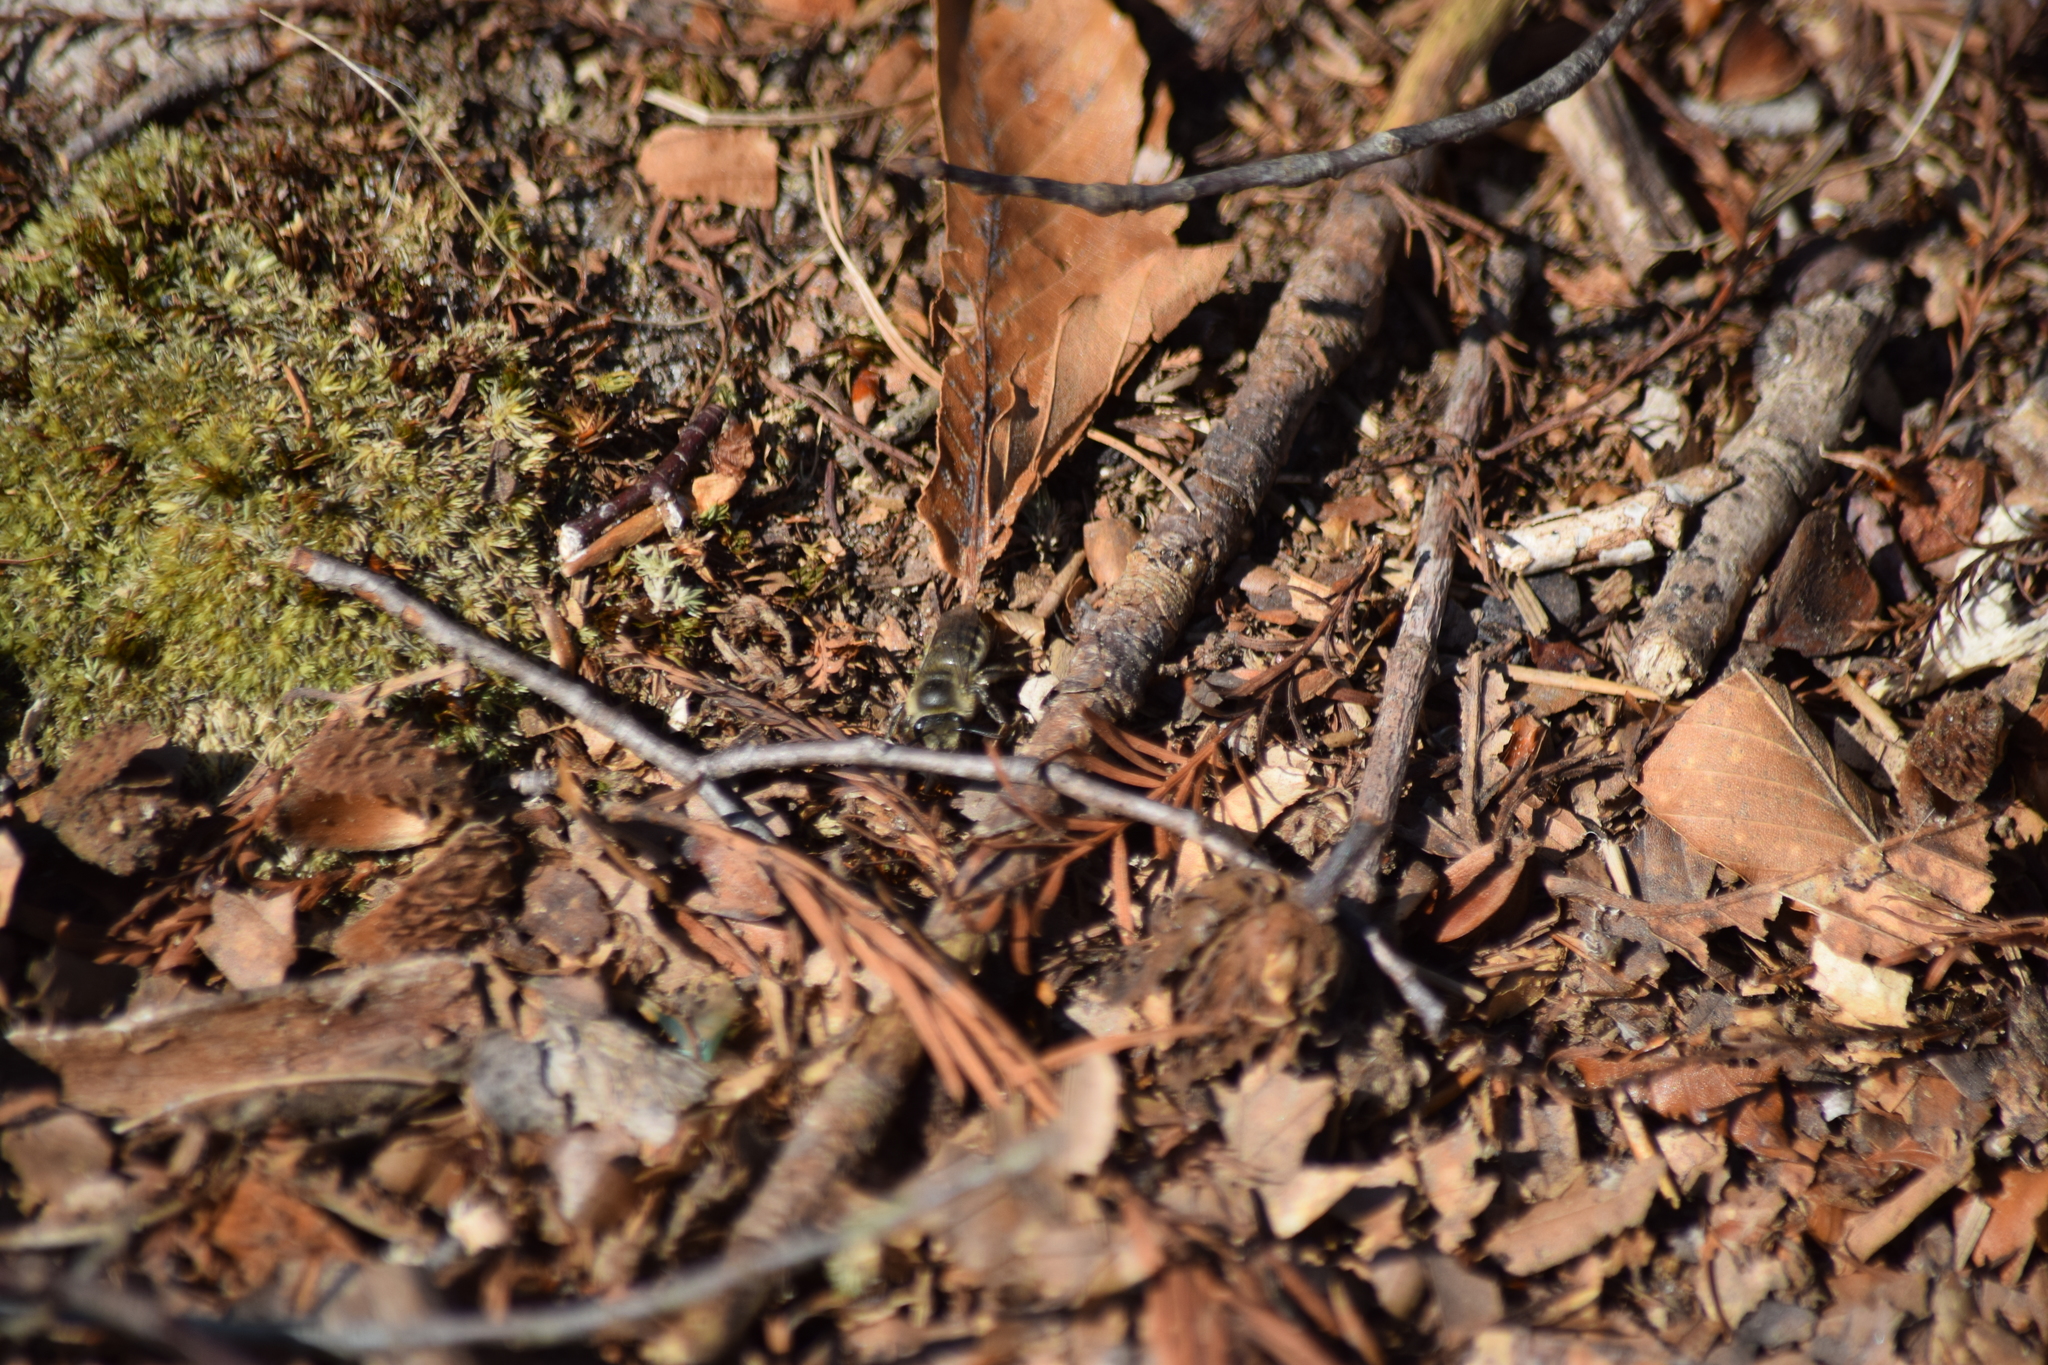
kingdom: Animalia
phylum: Arthropoda
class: Insecta
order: Hymenoptera
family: Colletidae
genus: Colletes
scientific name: Colletes inaequalis
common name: Unequal cellophane bee
